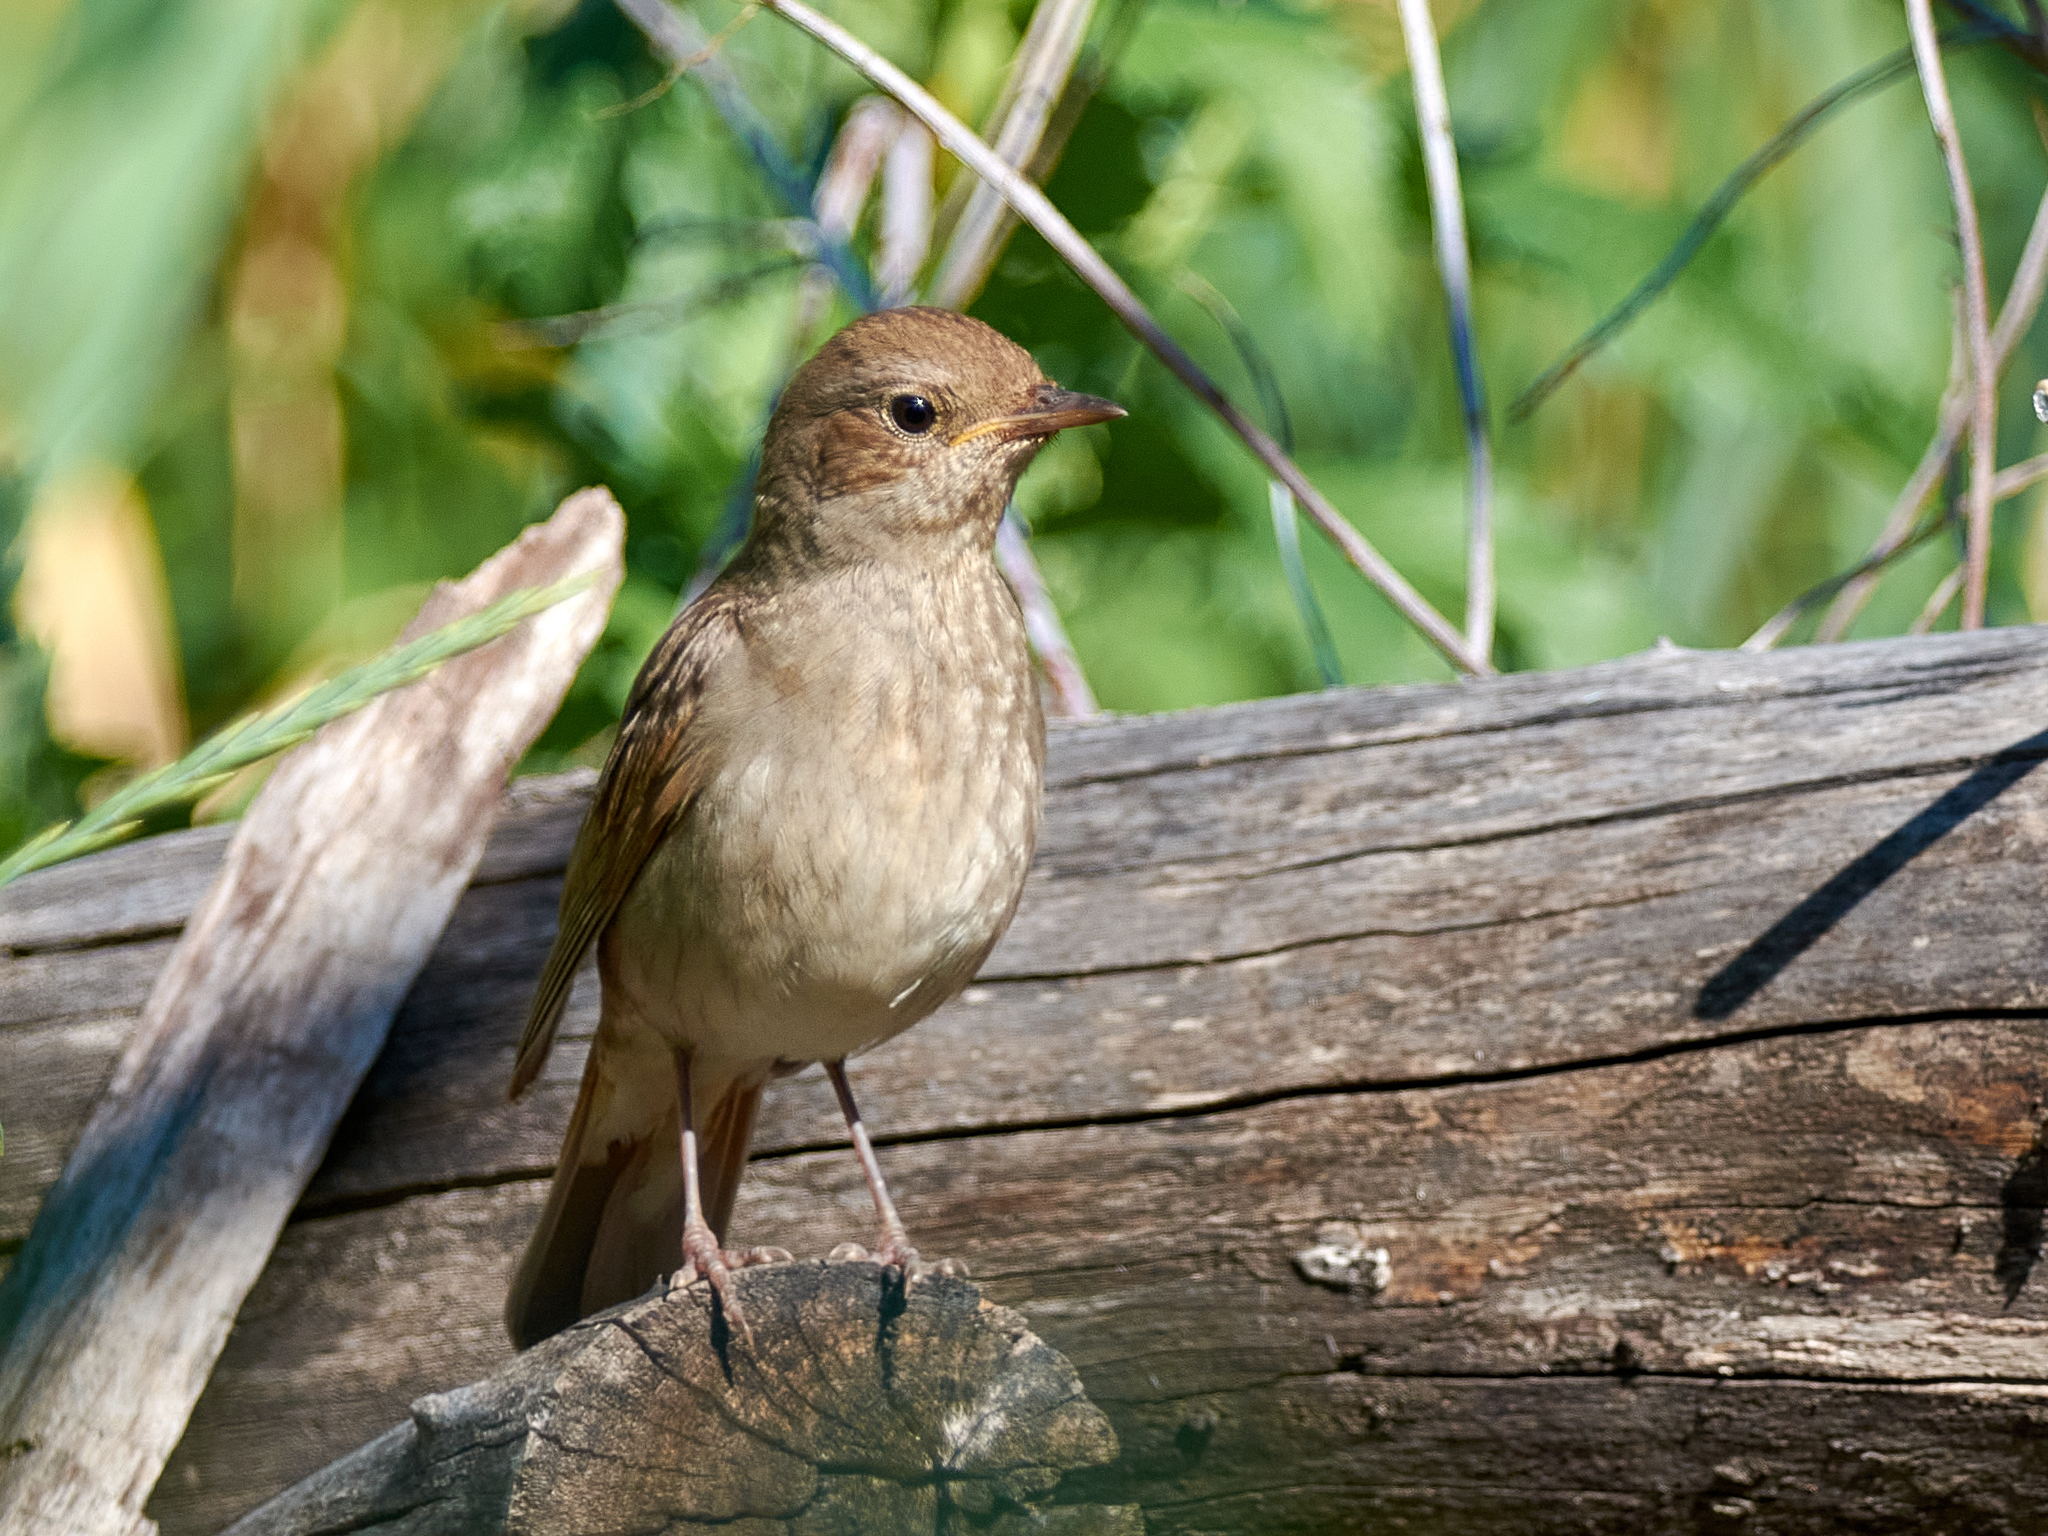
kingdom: Animalia
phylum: Chordata
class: Aves
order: Passeriformes
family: Muscicapidae
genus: Luscinia
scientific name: Luscinia luscinia
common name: Thrush nightingale
